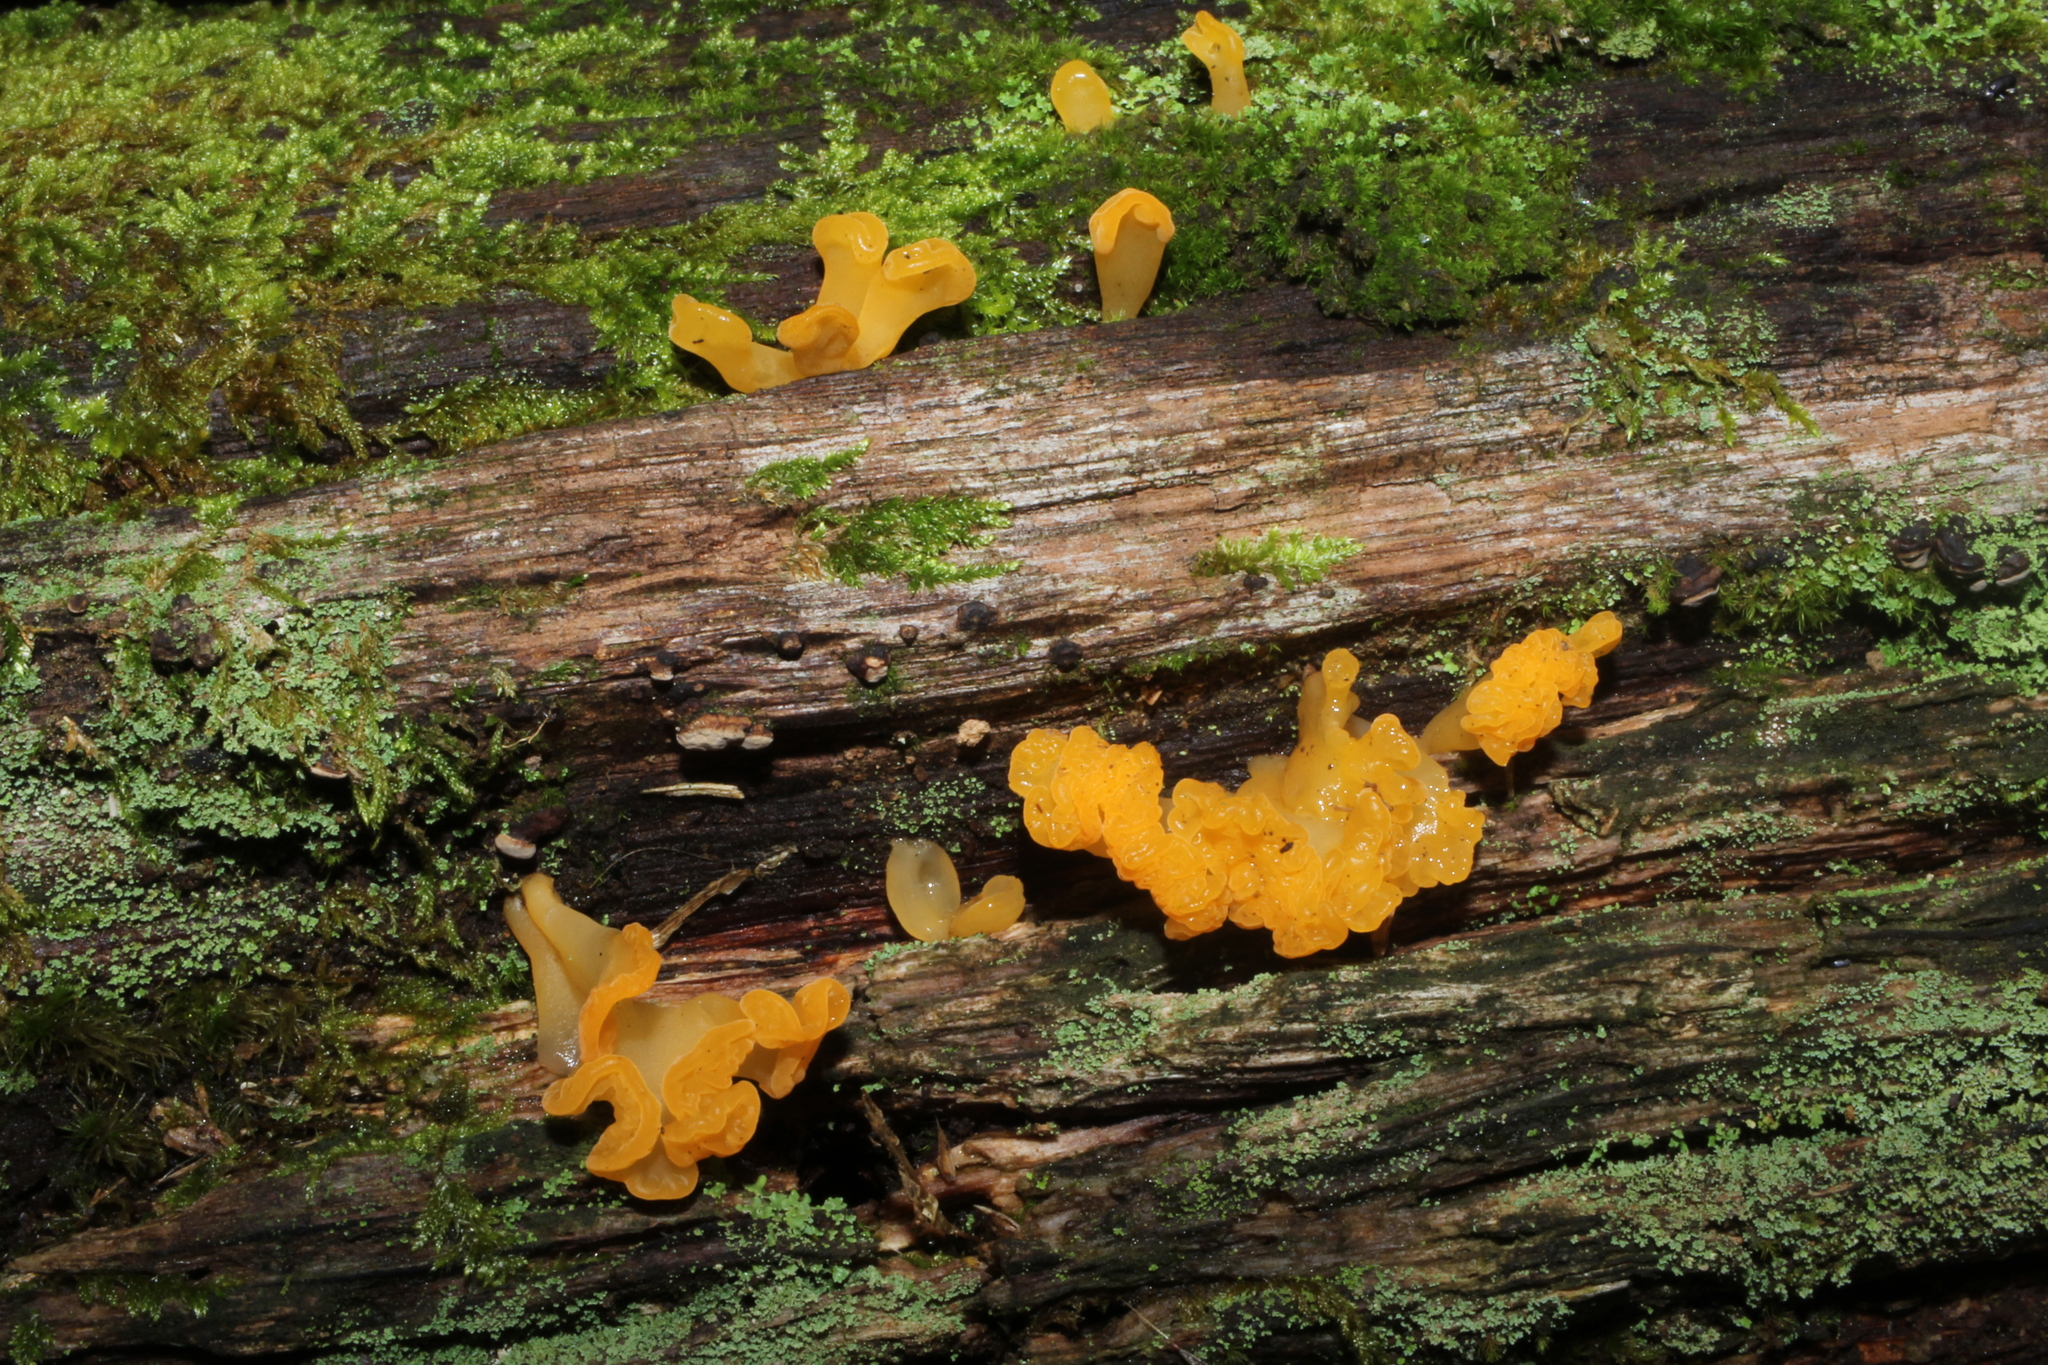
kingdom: Fungi
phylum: Basidiomycota
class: Dacrymycetes
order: Dacrymycetales
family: Dacrymycetaceae
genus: Dacrymyces
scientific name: Dacrymyces spathularius
